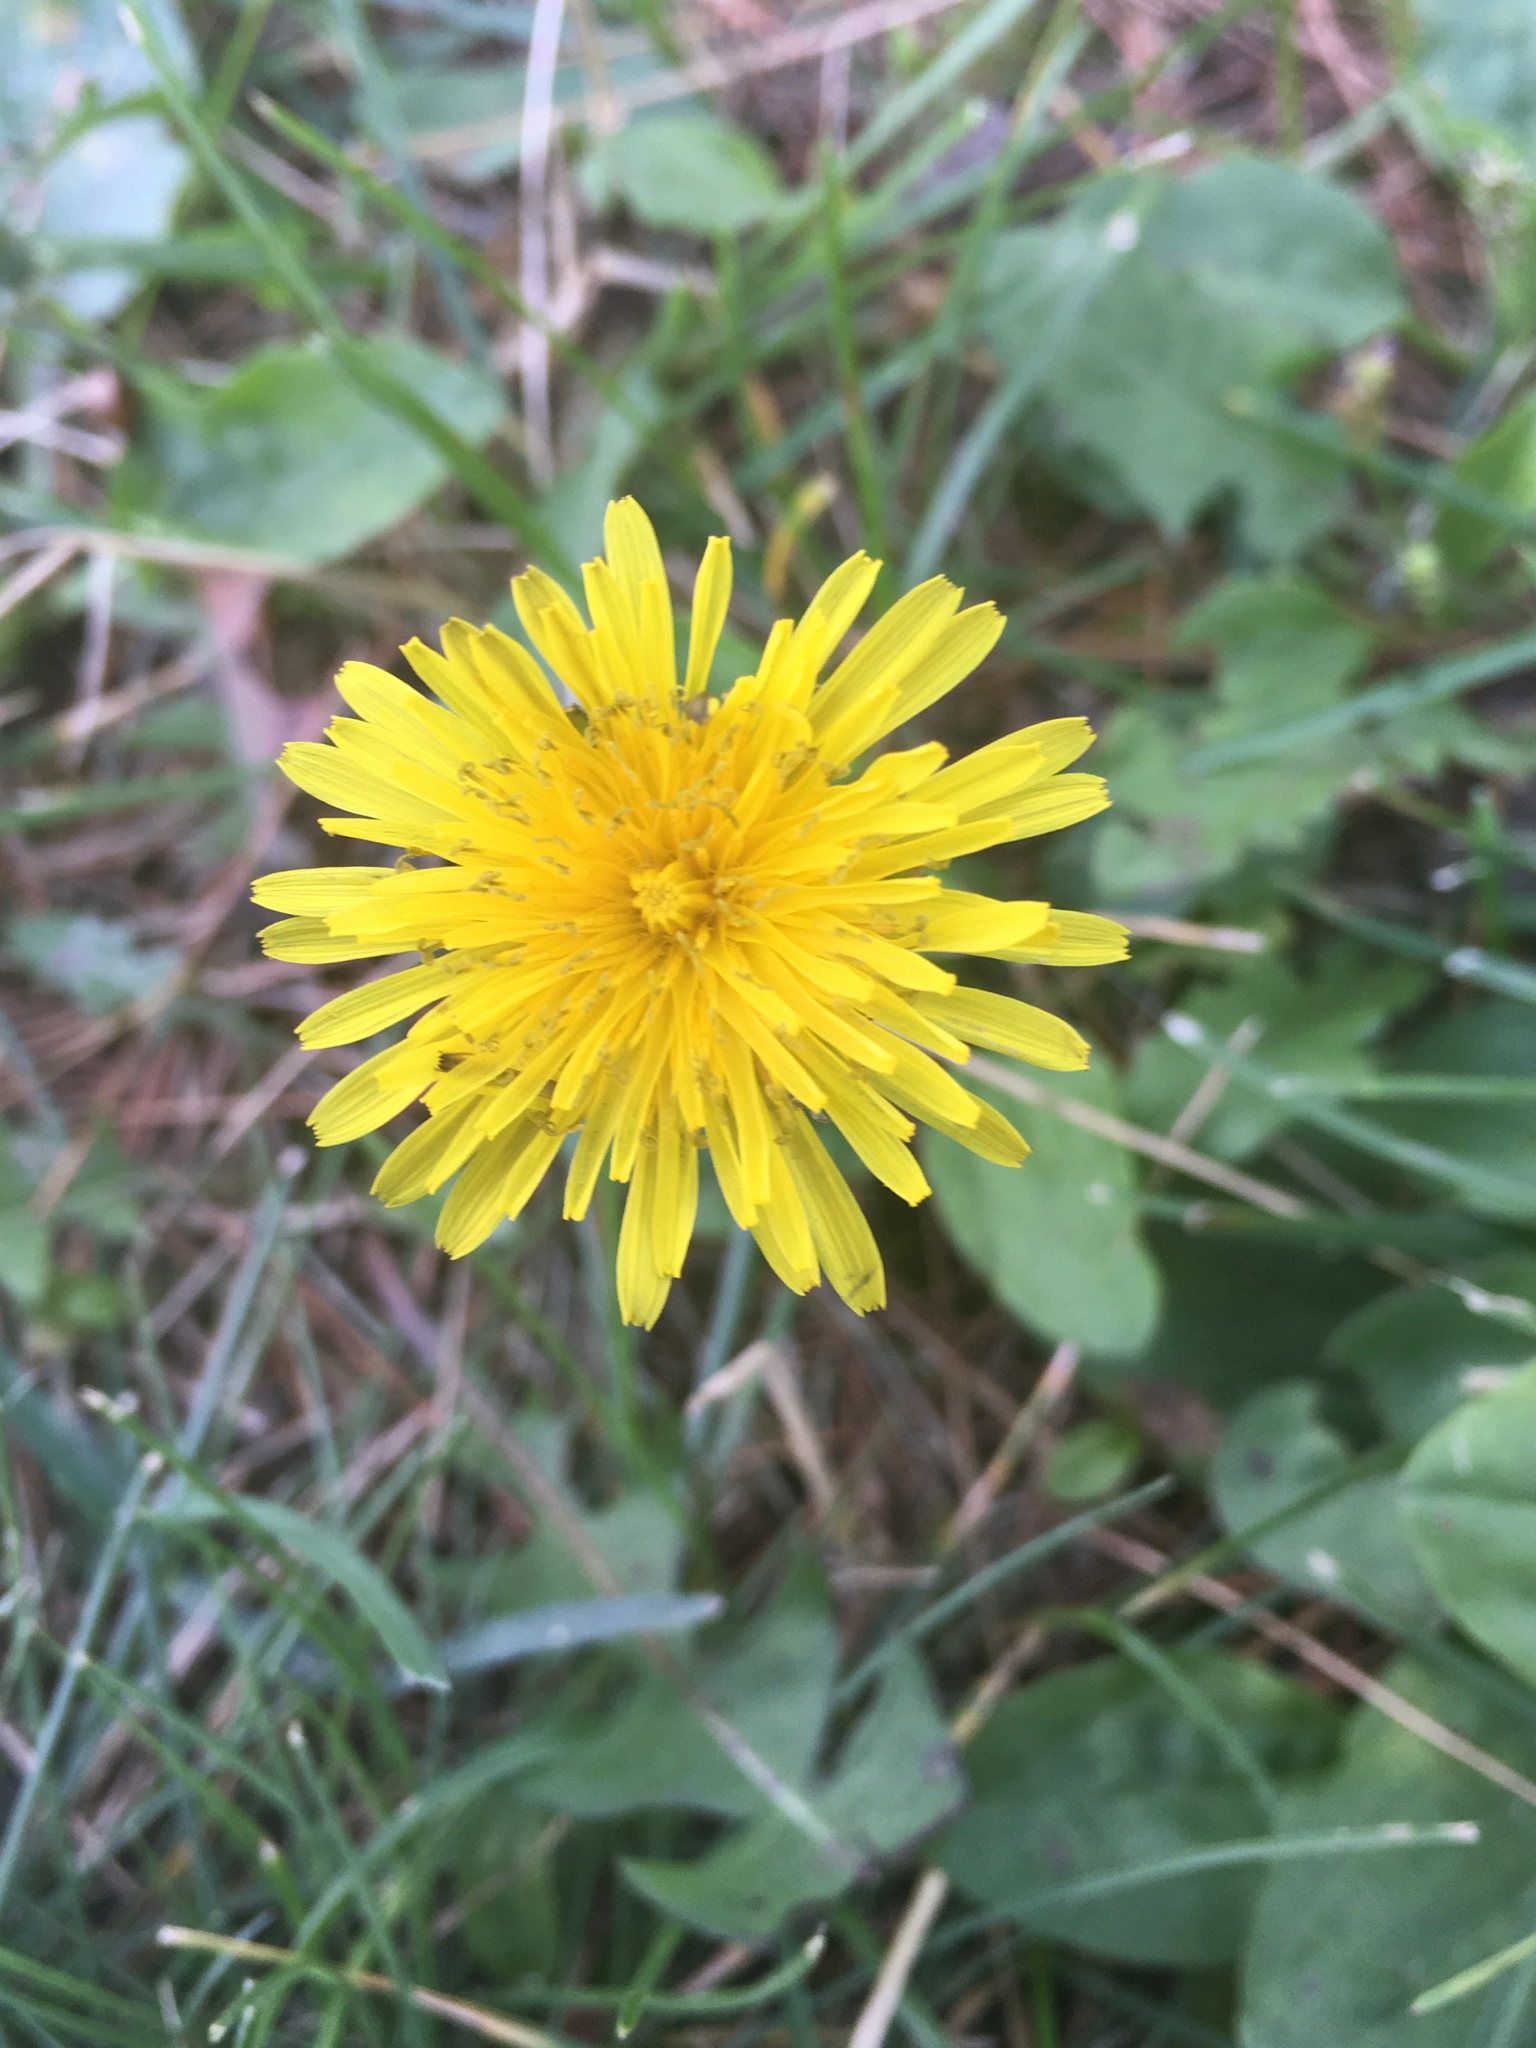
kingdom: Plantae
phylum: Tracheophyta
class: Magnoliopsida
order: Asterales
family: Asteraceae
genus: Taraxacum
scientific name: Taraxacum officinale
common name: Common dandelion
